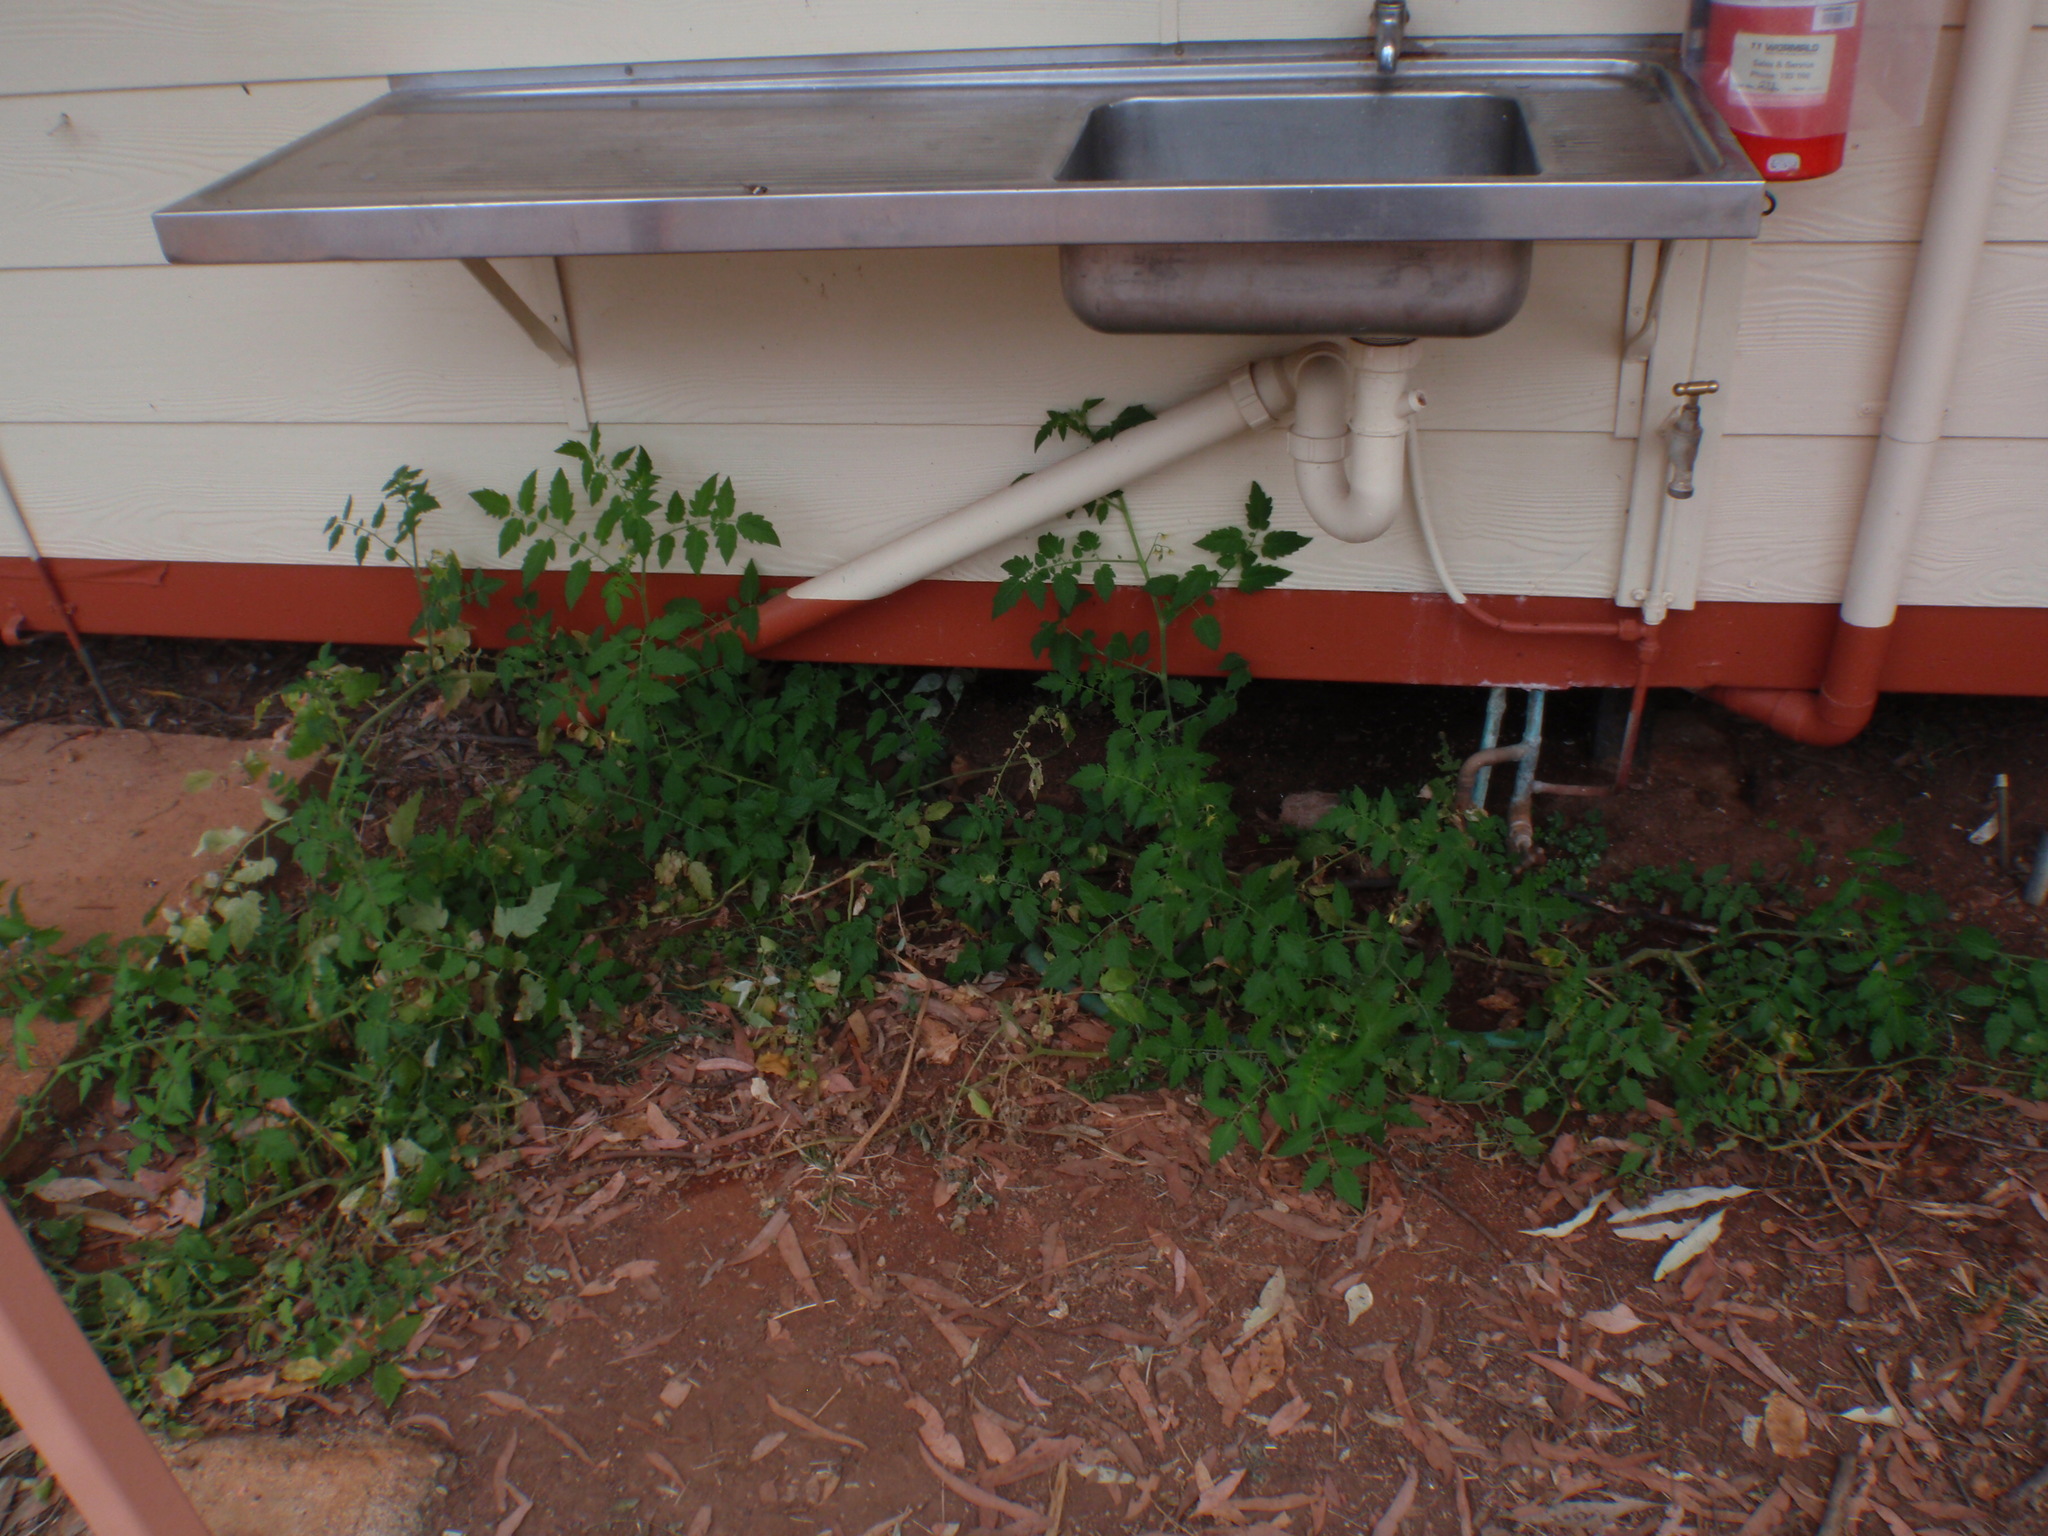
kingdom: Plantae
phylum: Tracheophyta
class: Magnoliopsida
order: Solanales
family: Solanaceae
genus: Solanum
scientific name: Solanum lycopersicum
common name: Garden tomato
